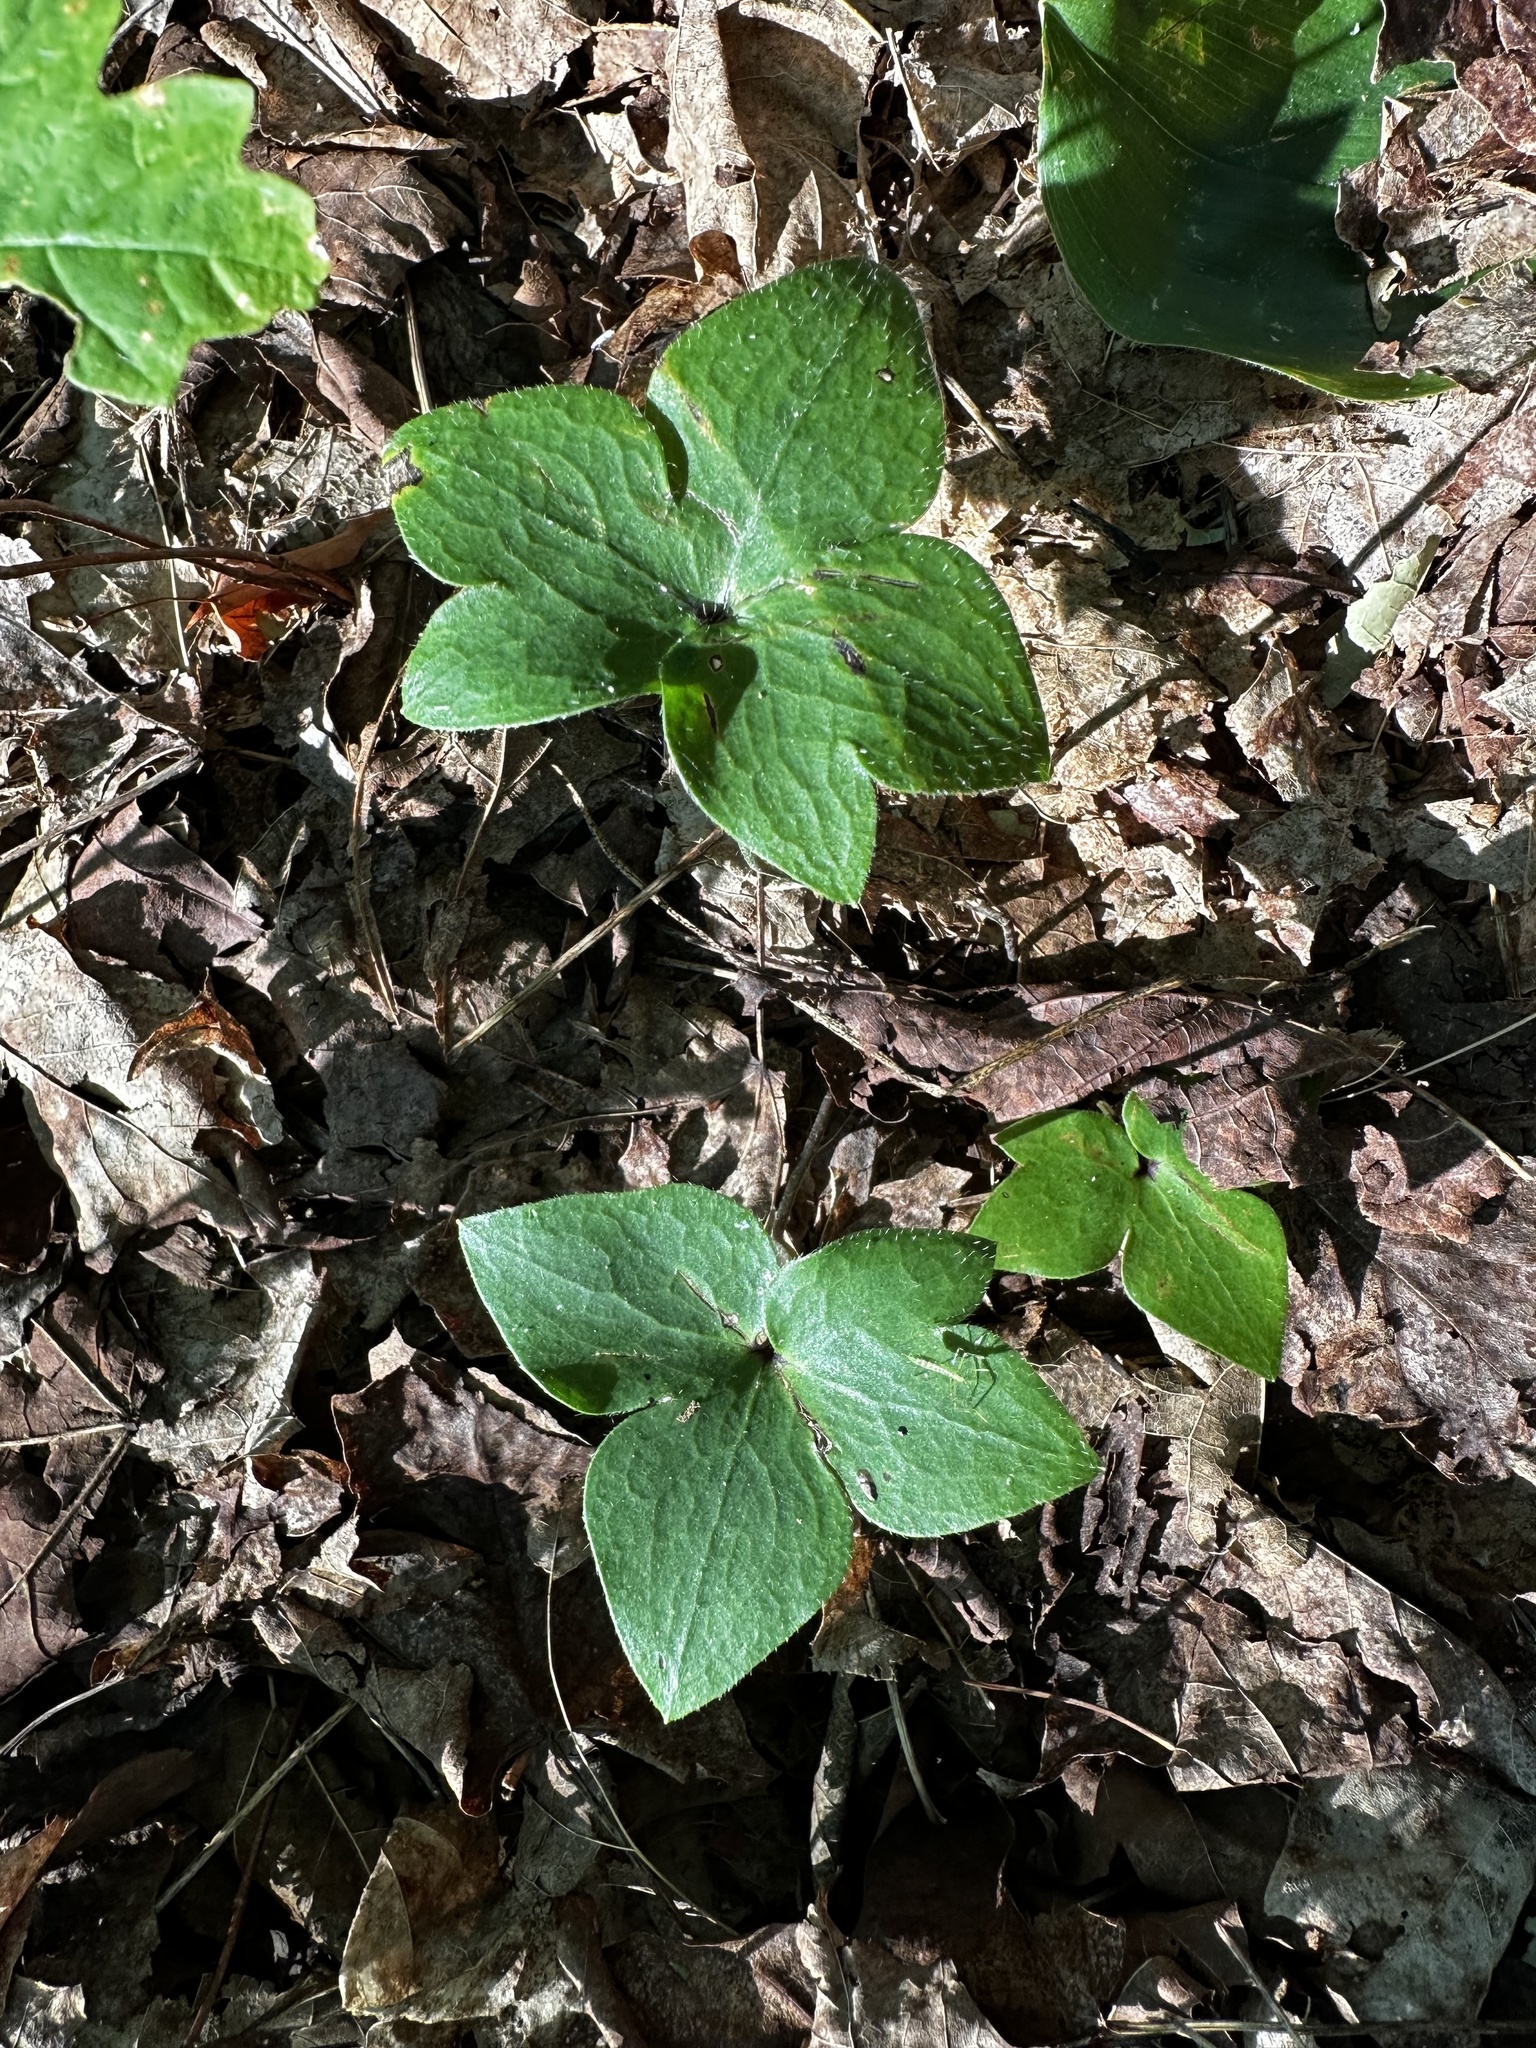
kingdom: Plantae
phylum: Tracheophyta
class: Magnoliopsida
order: Ranunculales
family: Ranunculaceae
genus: Hepatica
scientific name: Hepatica acutiloba
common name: Sharp-lobed hepatica
